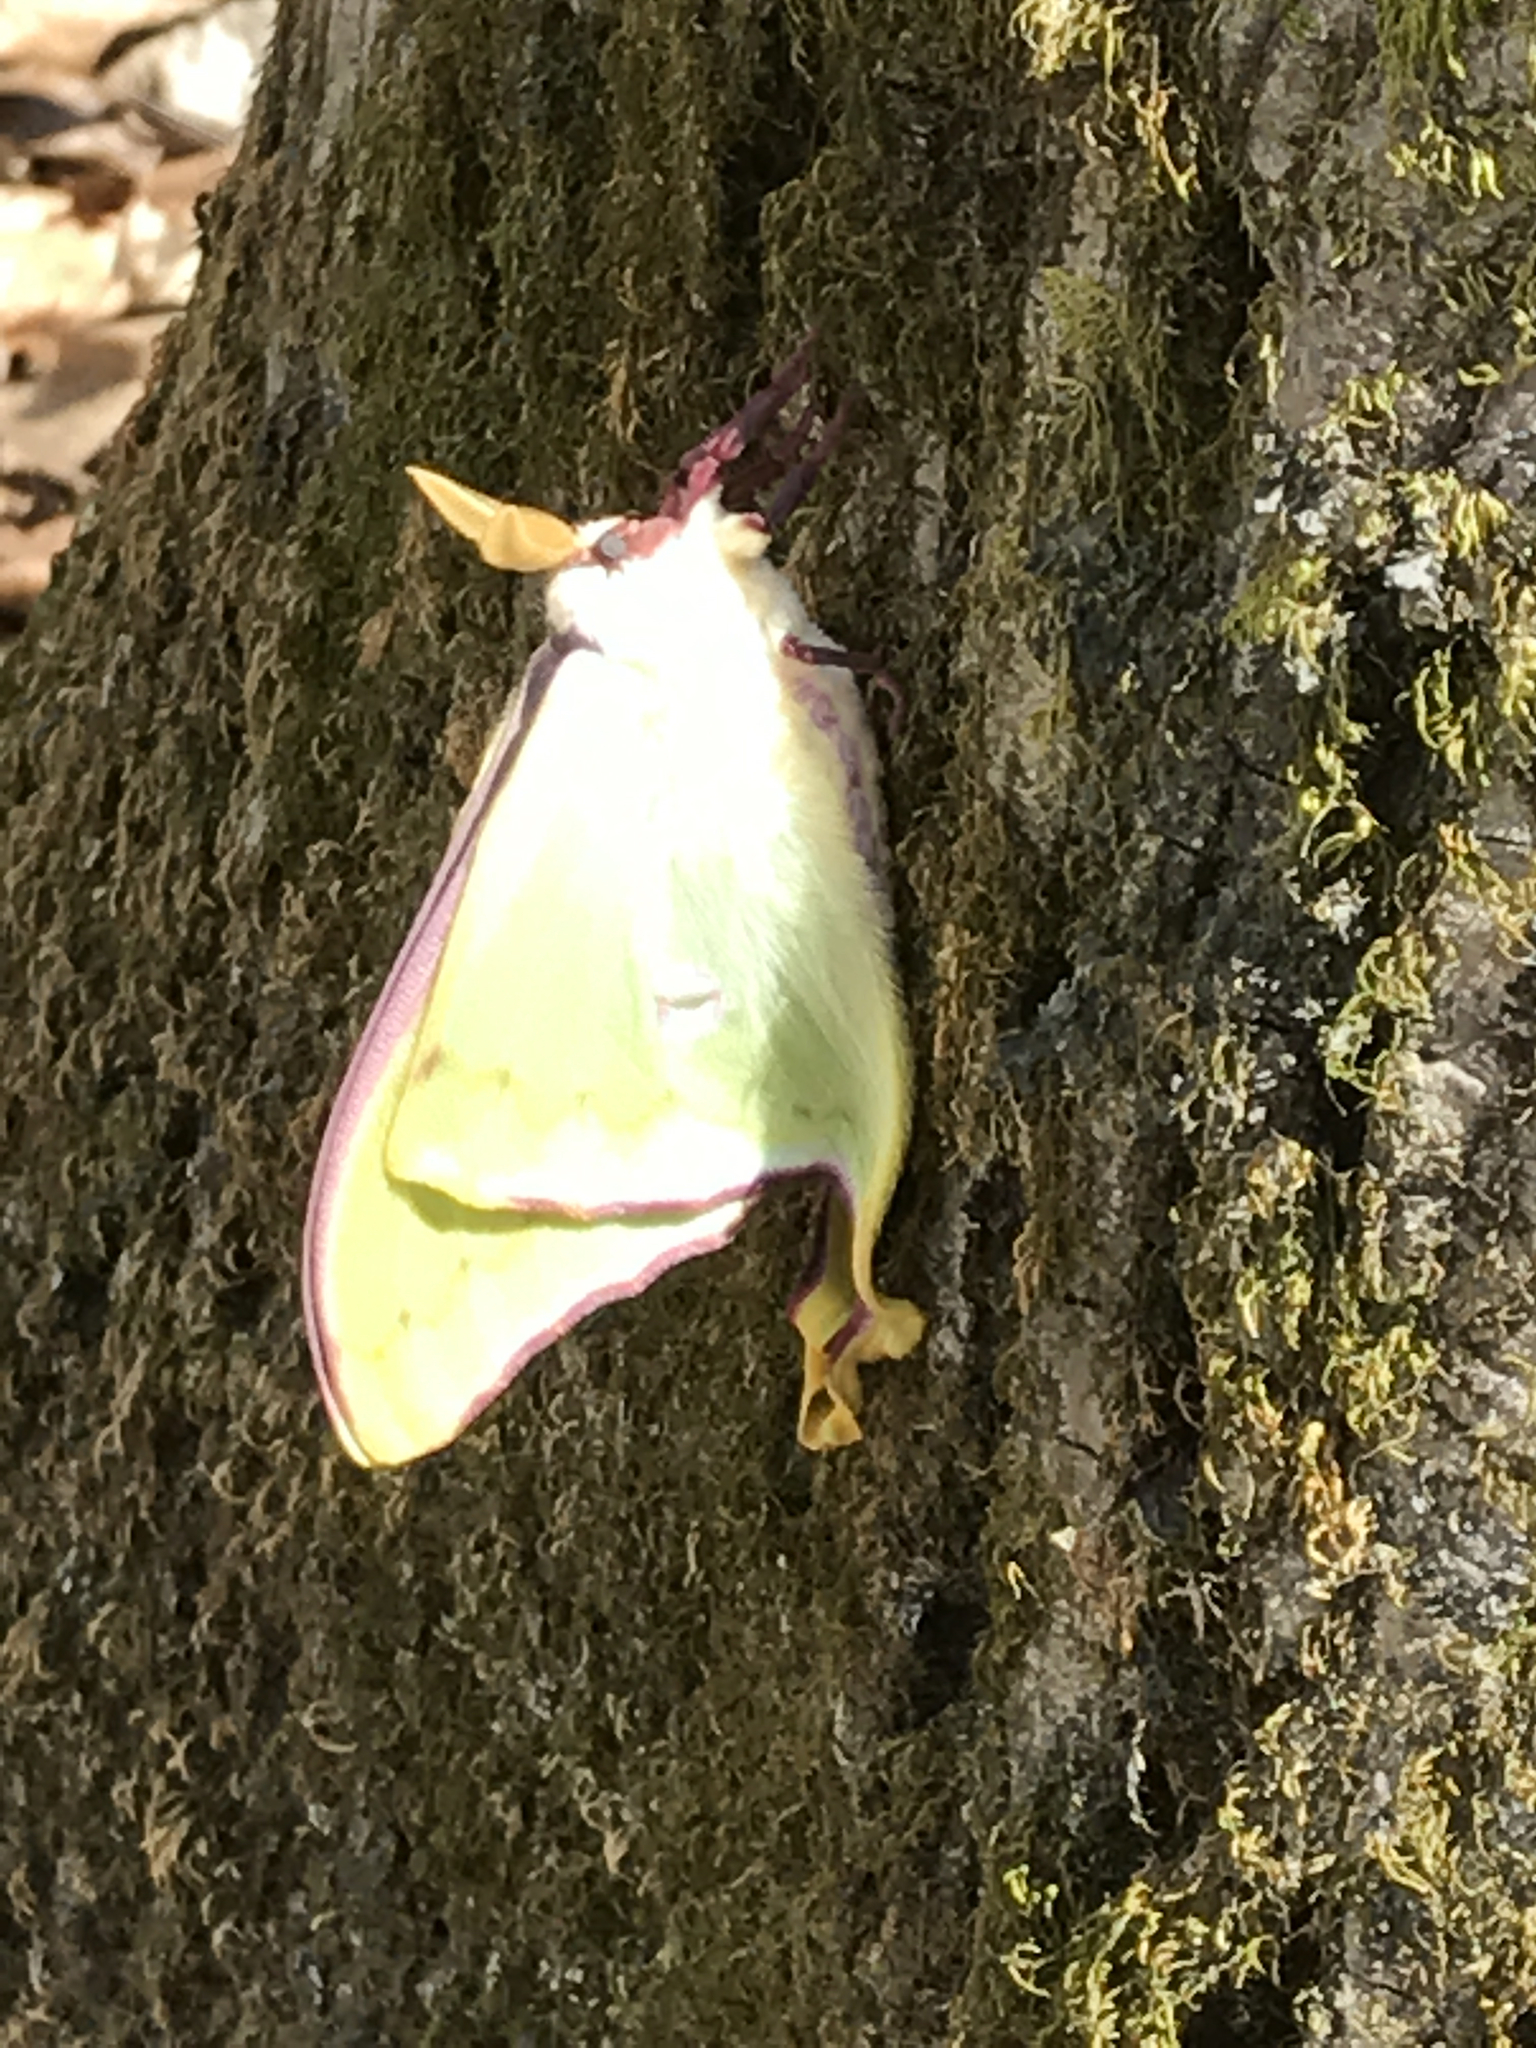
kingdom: Animalia
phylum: Arthropoda
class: Insecta
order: Lepidoptera
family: Saturniidae
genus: Actias
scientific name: Actias luna
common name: Luna moth
